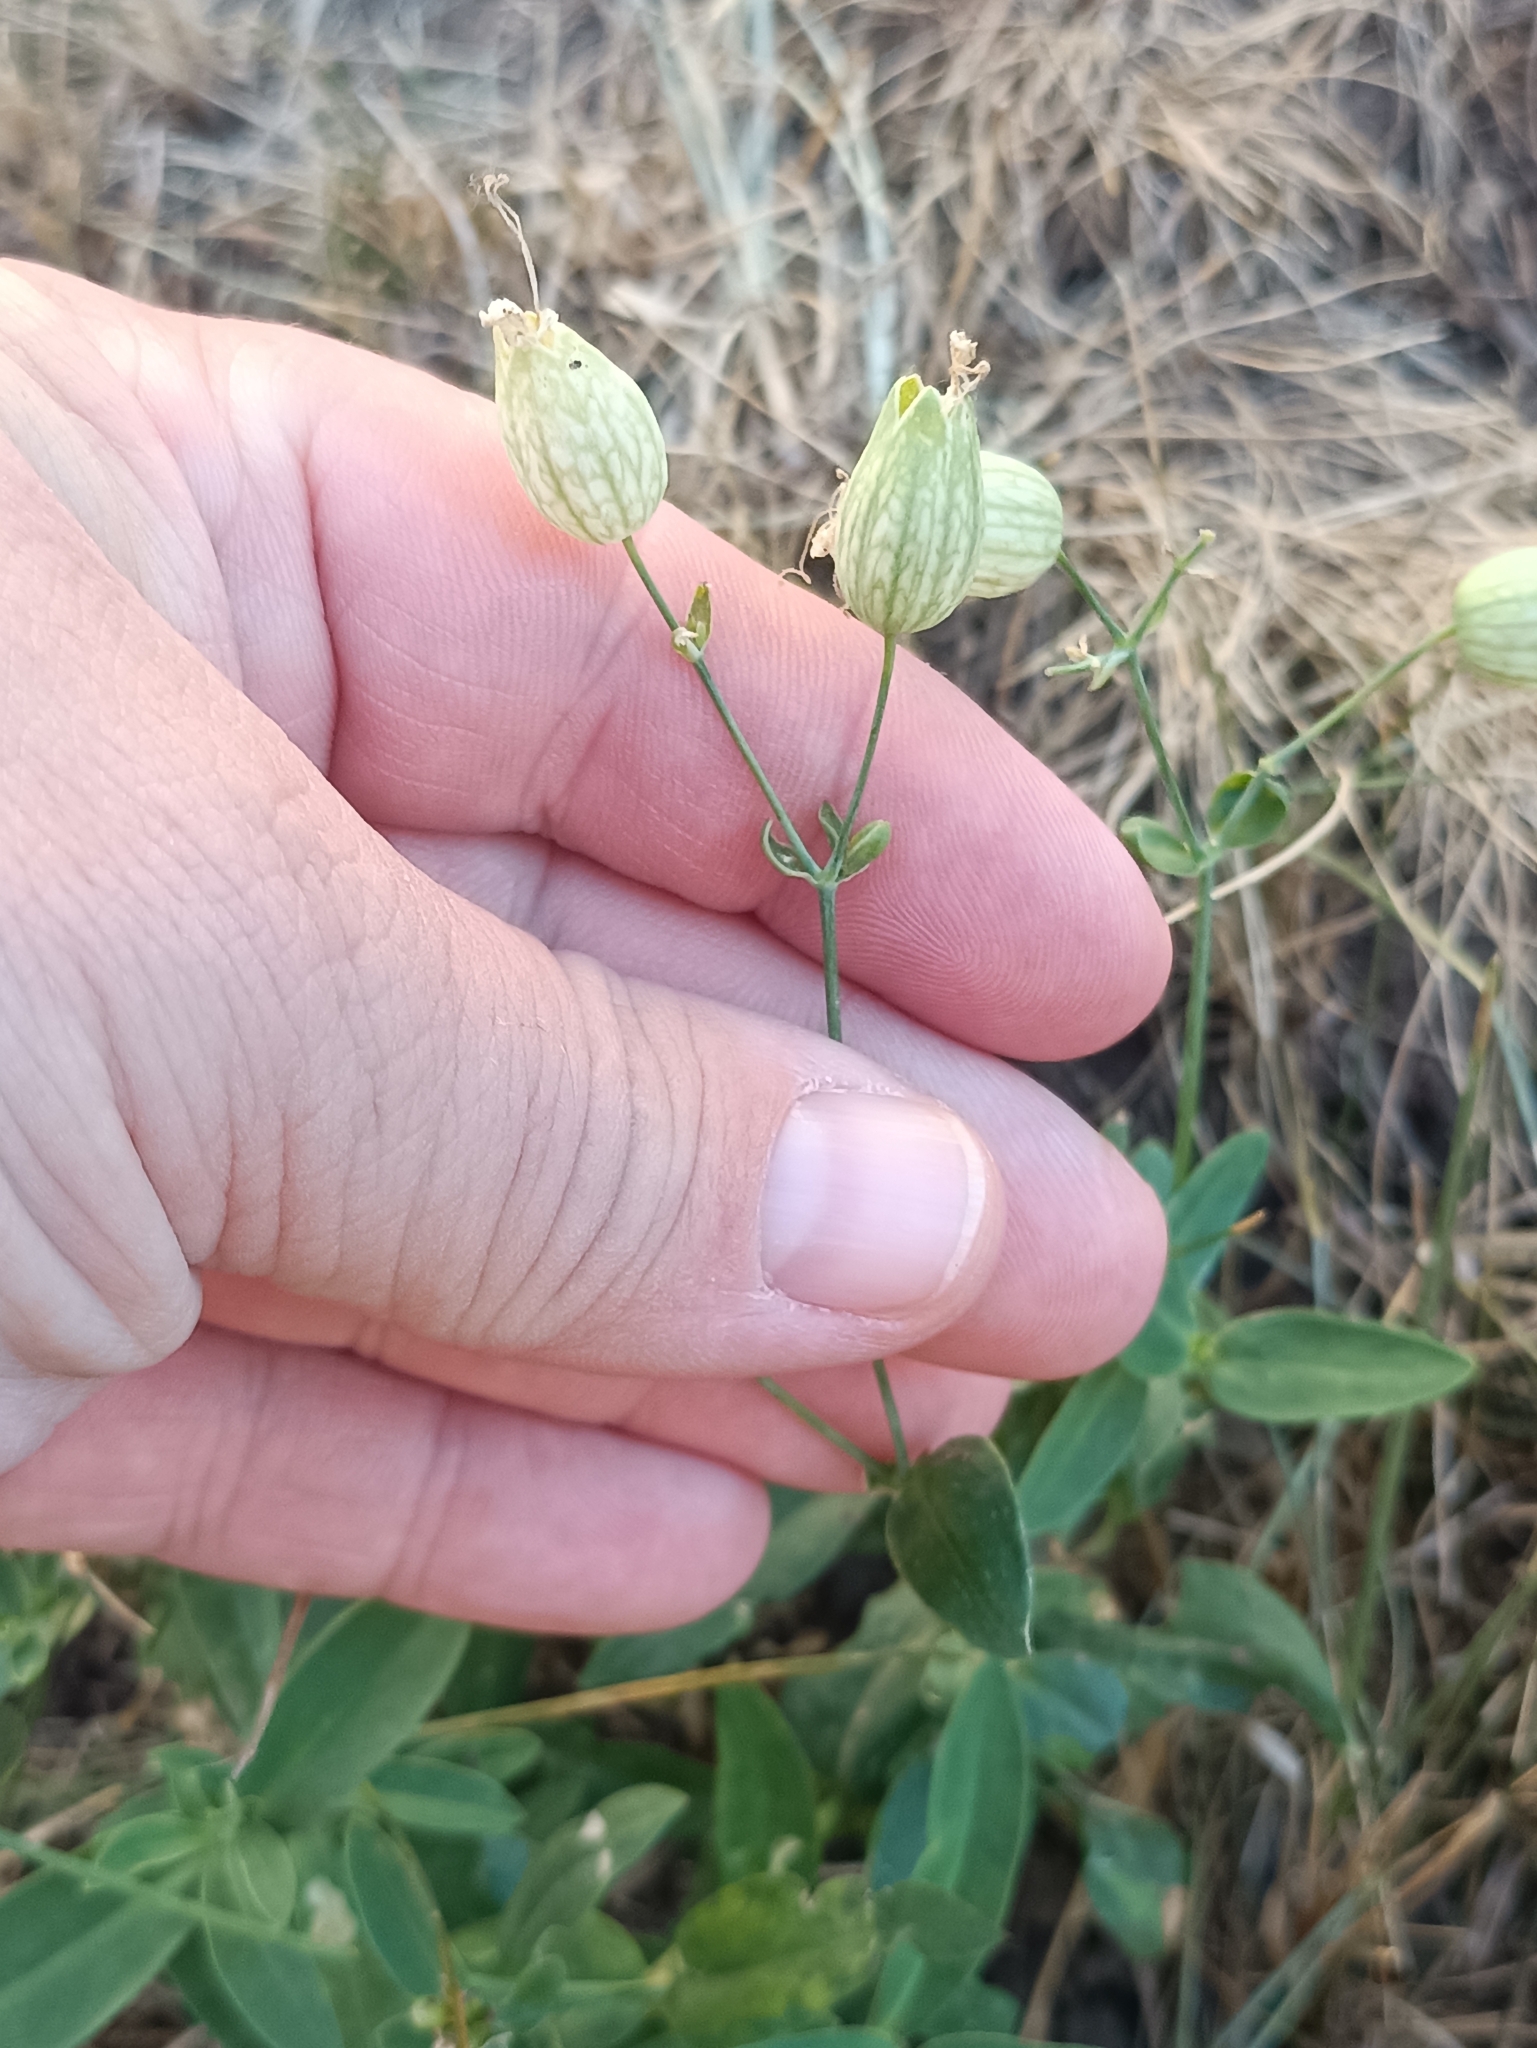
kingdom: Plantae
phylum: Tracheophyta
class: Magnoliopsida
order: Caryophyllales
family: Caryophyllaceae
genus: Silene
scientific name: Silene vulgaris
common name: Bladder campion
